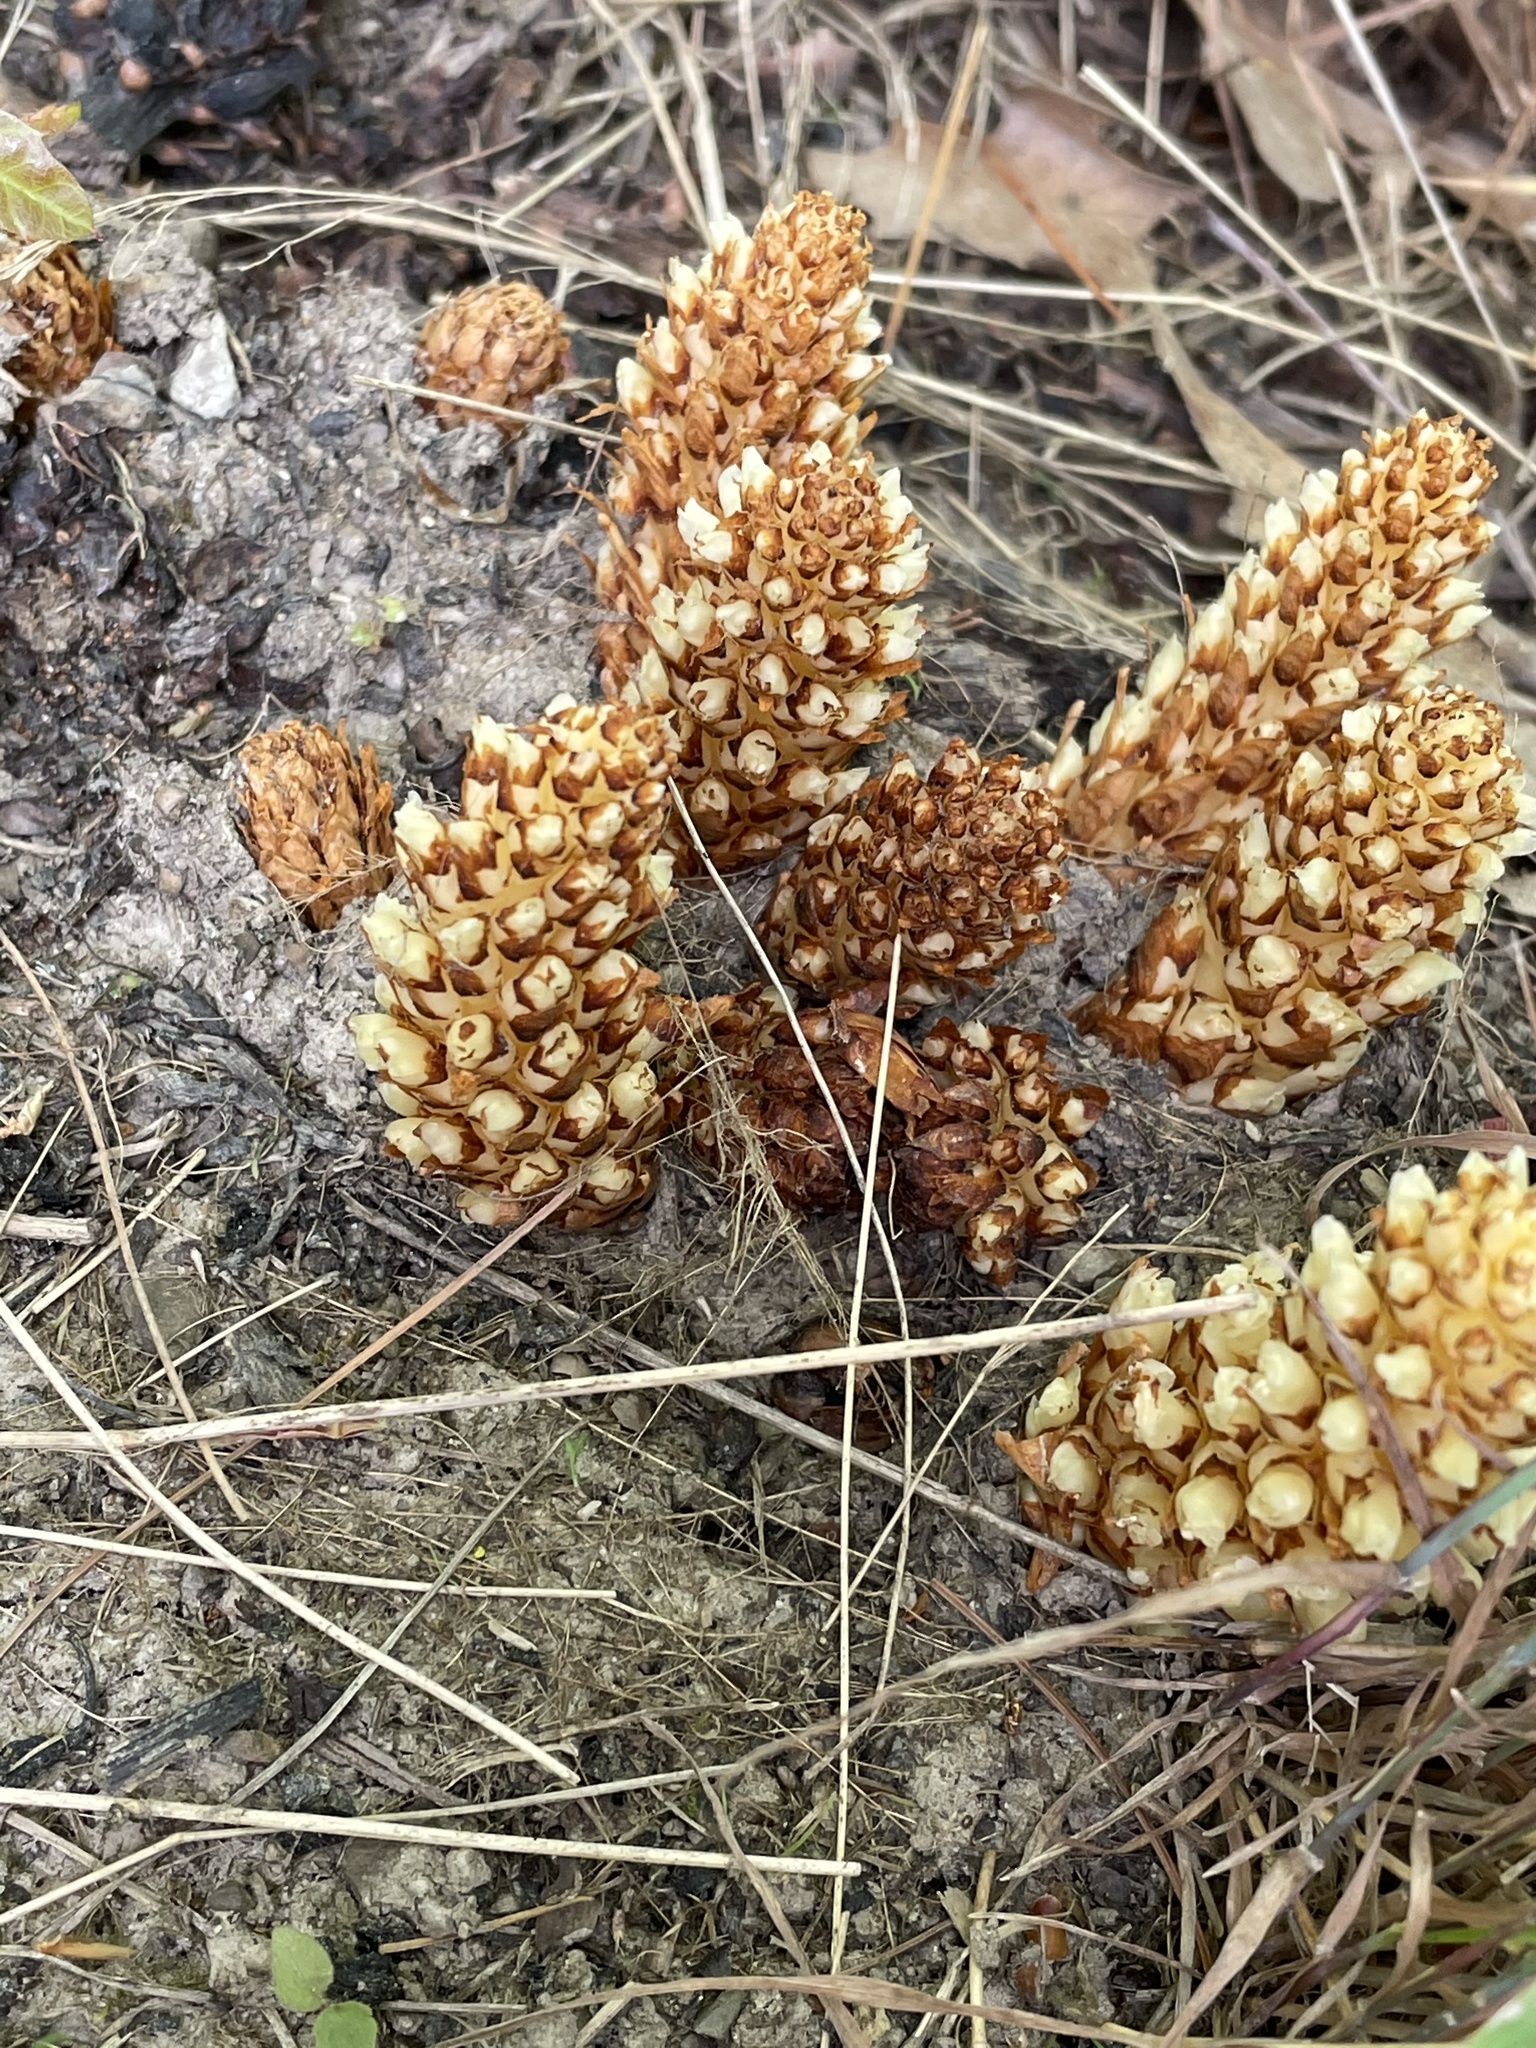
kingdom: Plantae
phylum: Tracheophyta
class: Magnoliopsida
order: Lamiales
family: Orobanchaceae
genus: Conopholis
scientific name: Conopholis americana
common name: American cancer-root
